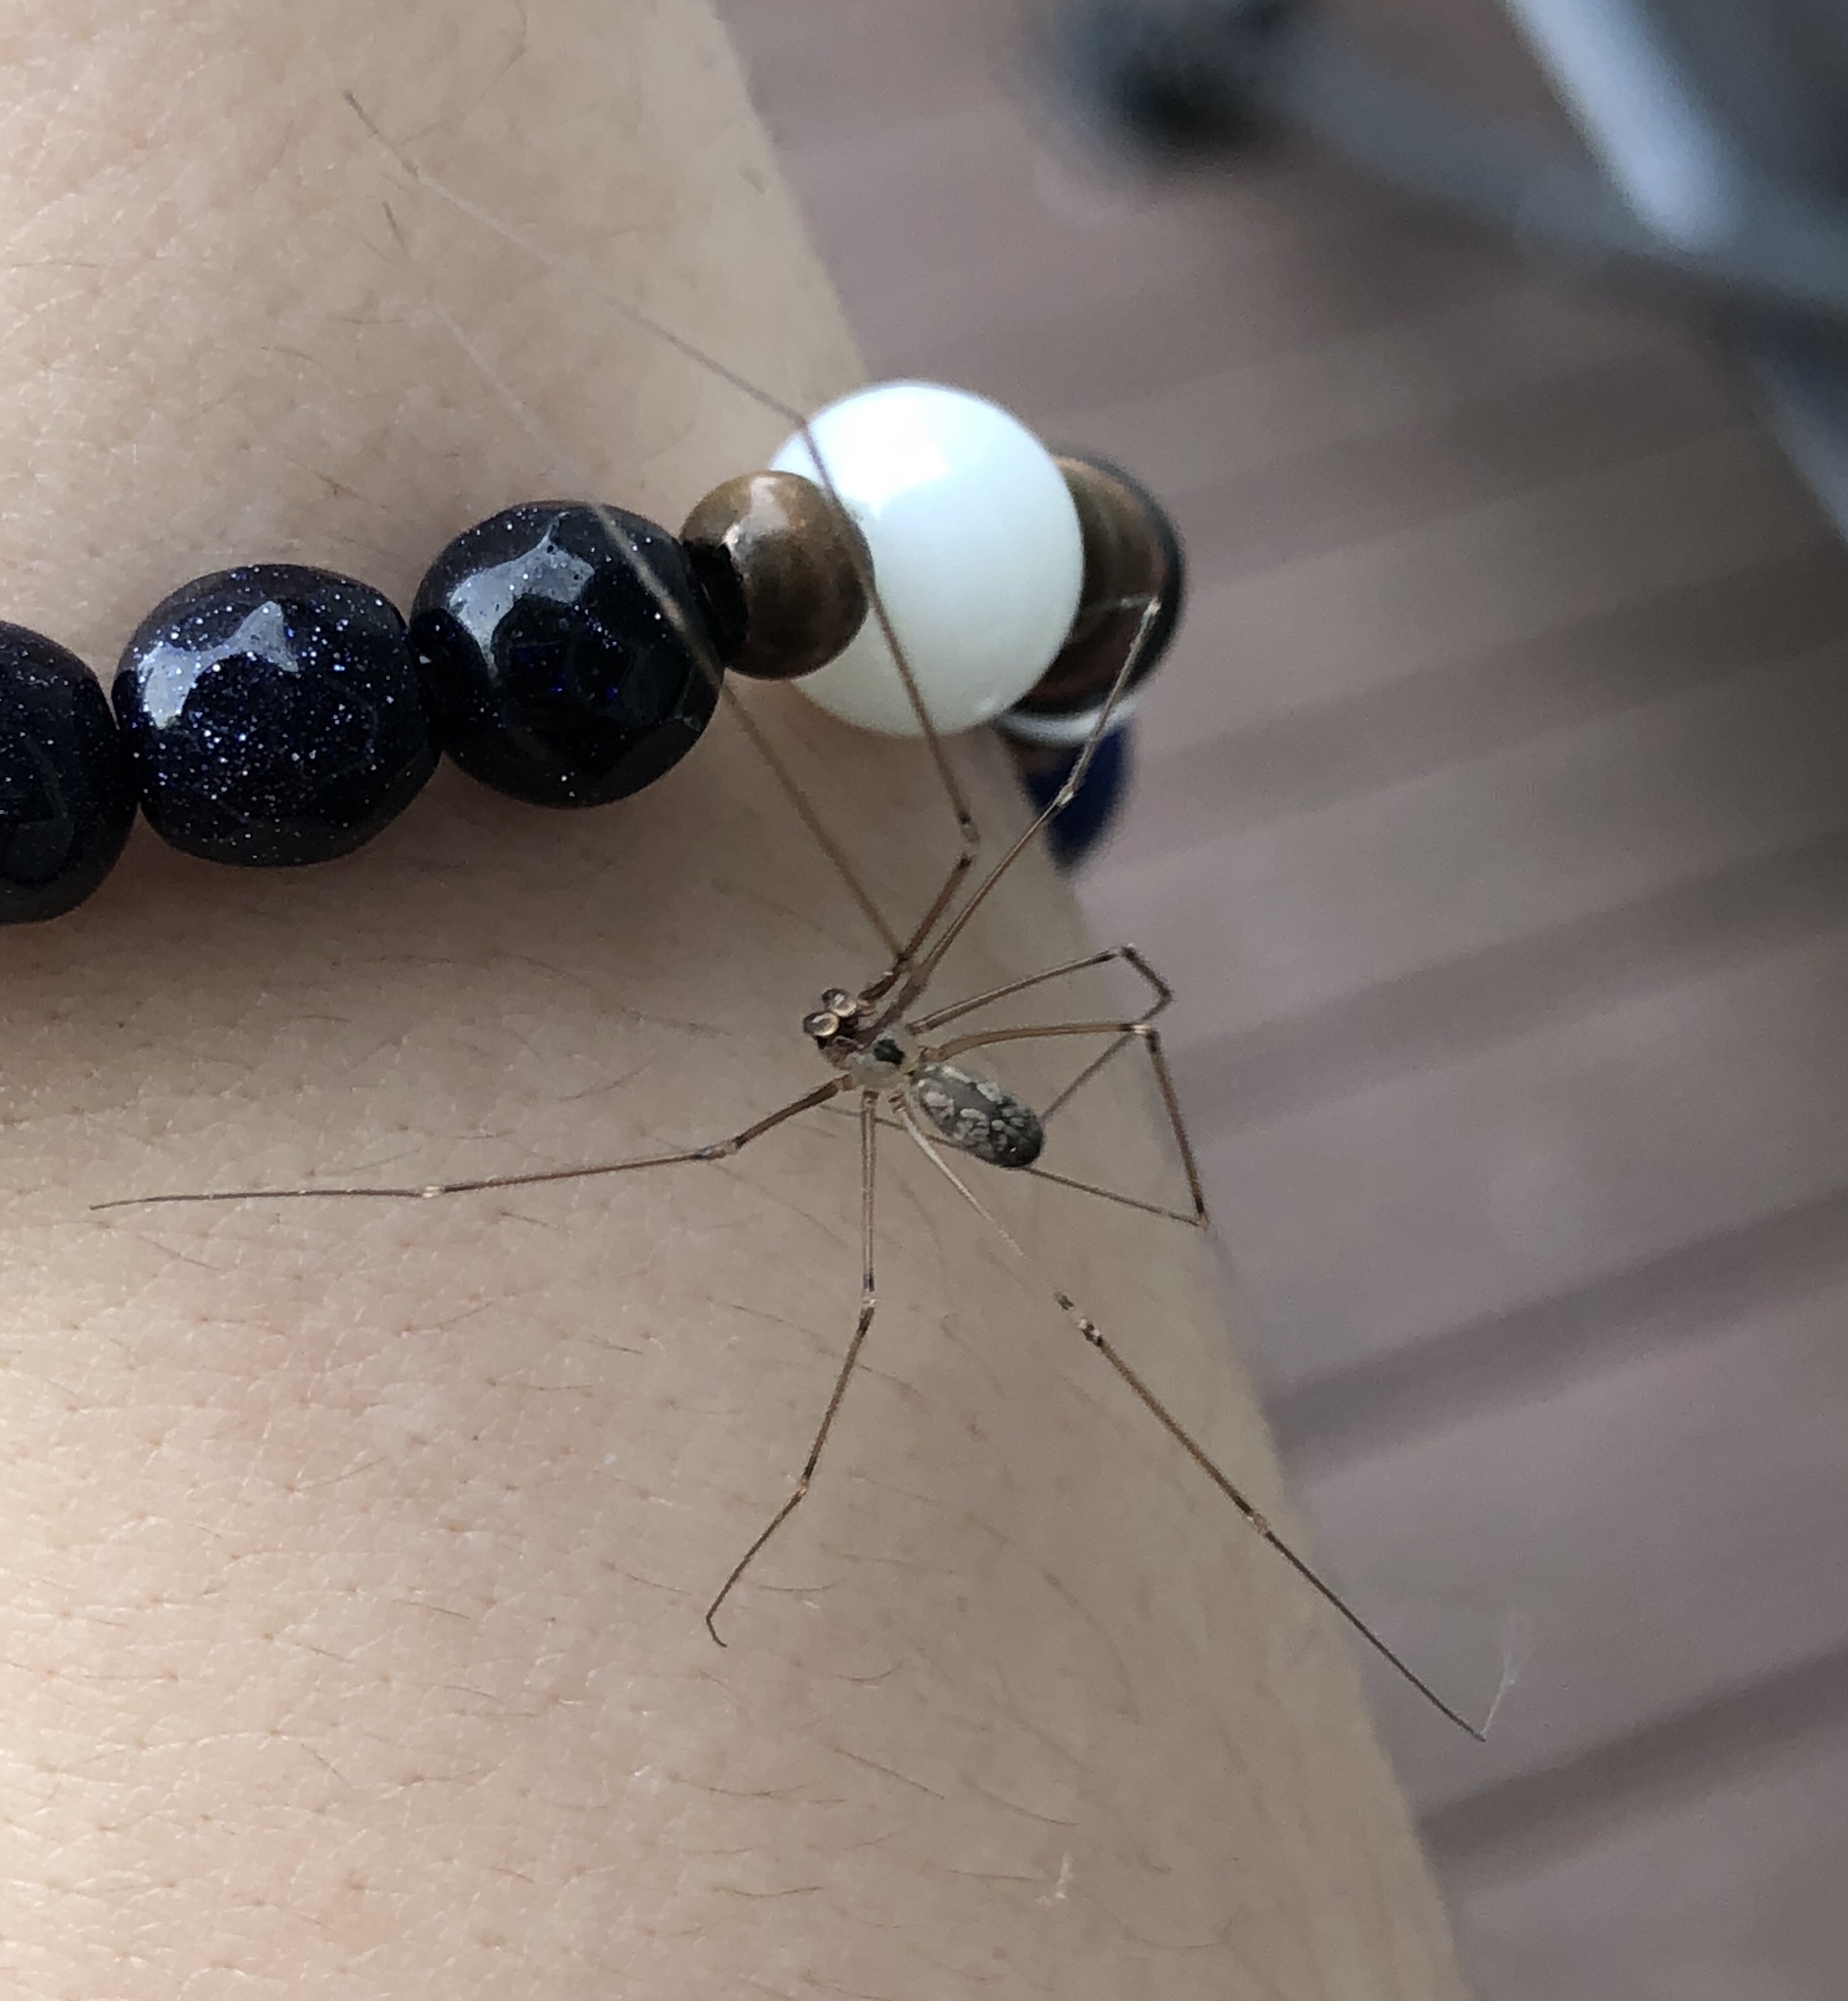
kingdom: Animalia
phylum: Arthropoda
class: Arachnida
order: Araneae
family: Pholcidae
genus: Pholcus
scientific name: Pholcus phalangioides
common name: Longbodied cellar spider
